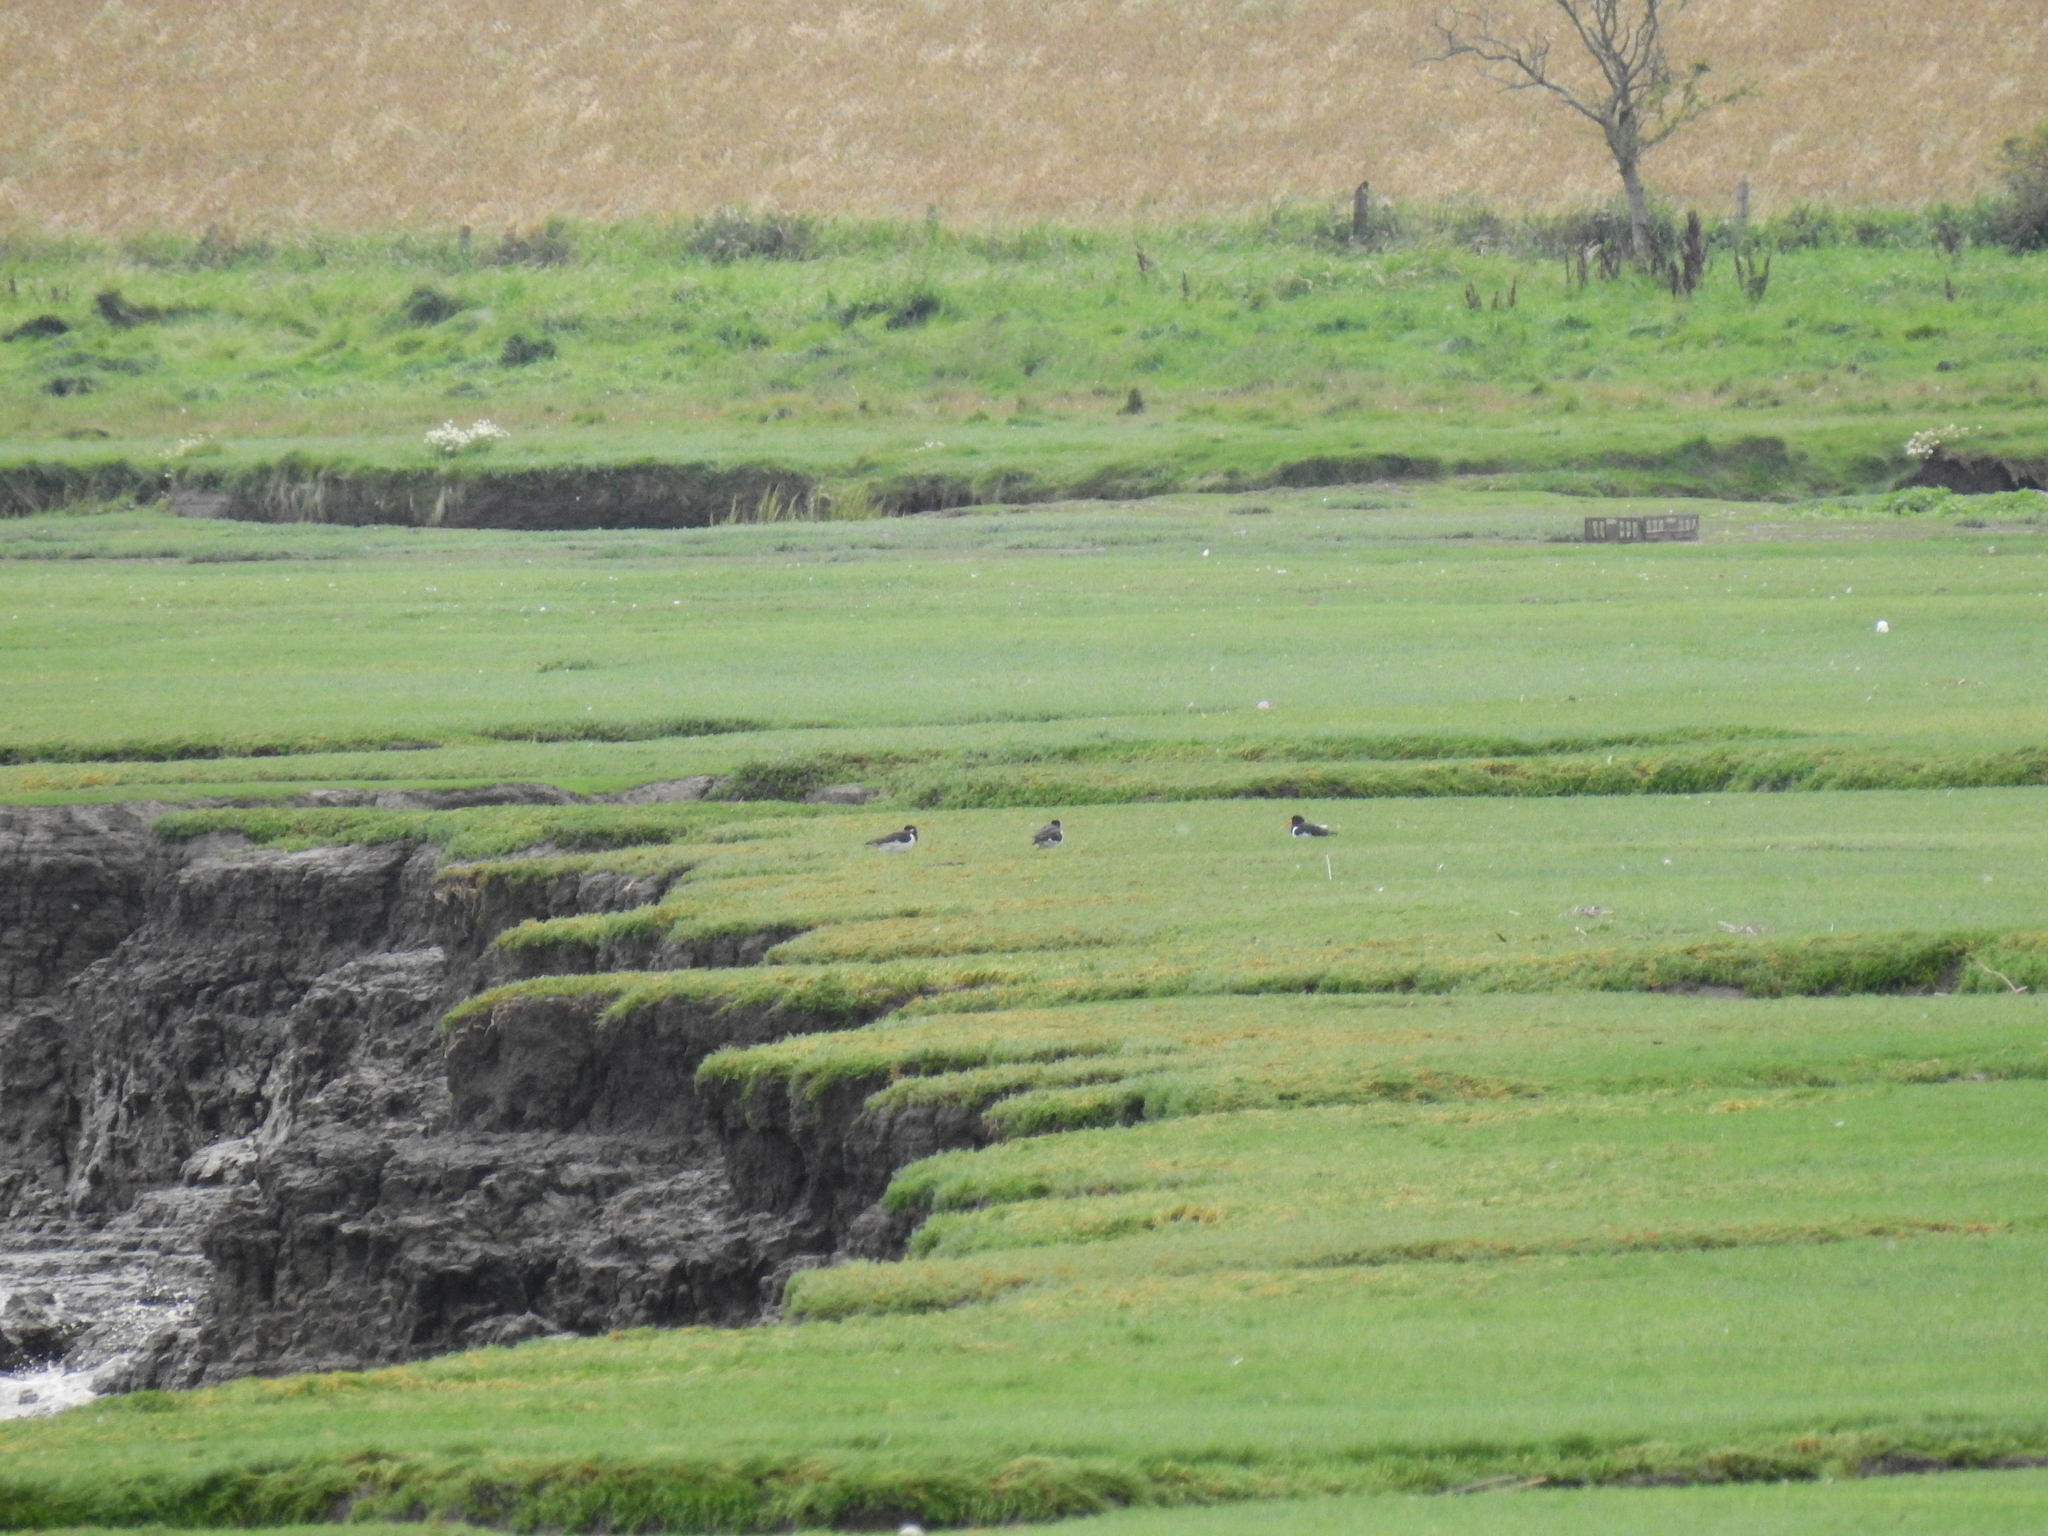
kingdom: Animalia
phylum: Chordata
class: Aves
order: Charadriiformes
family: Haematopodidae
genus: Haematopus
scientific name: Haematopus ostralegus
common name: Eurasian oystercatcher
